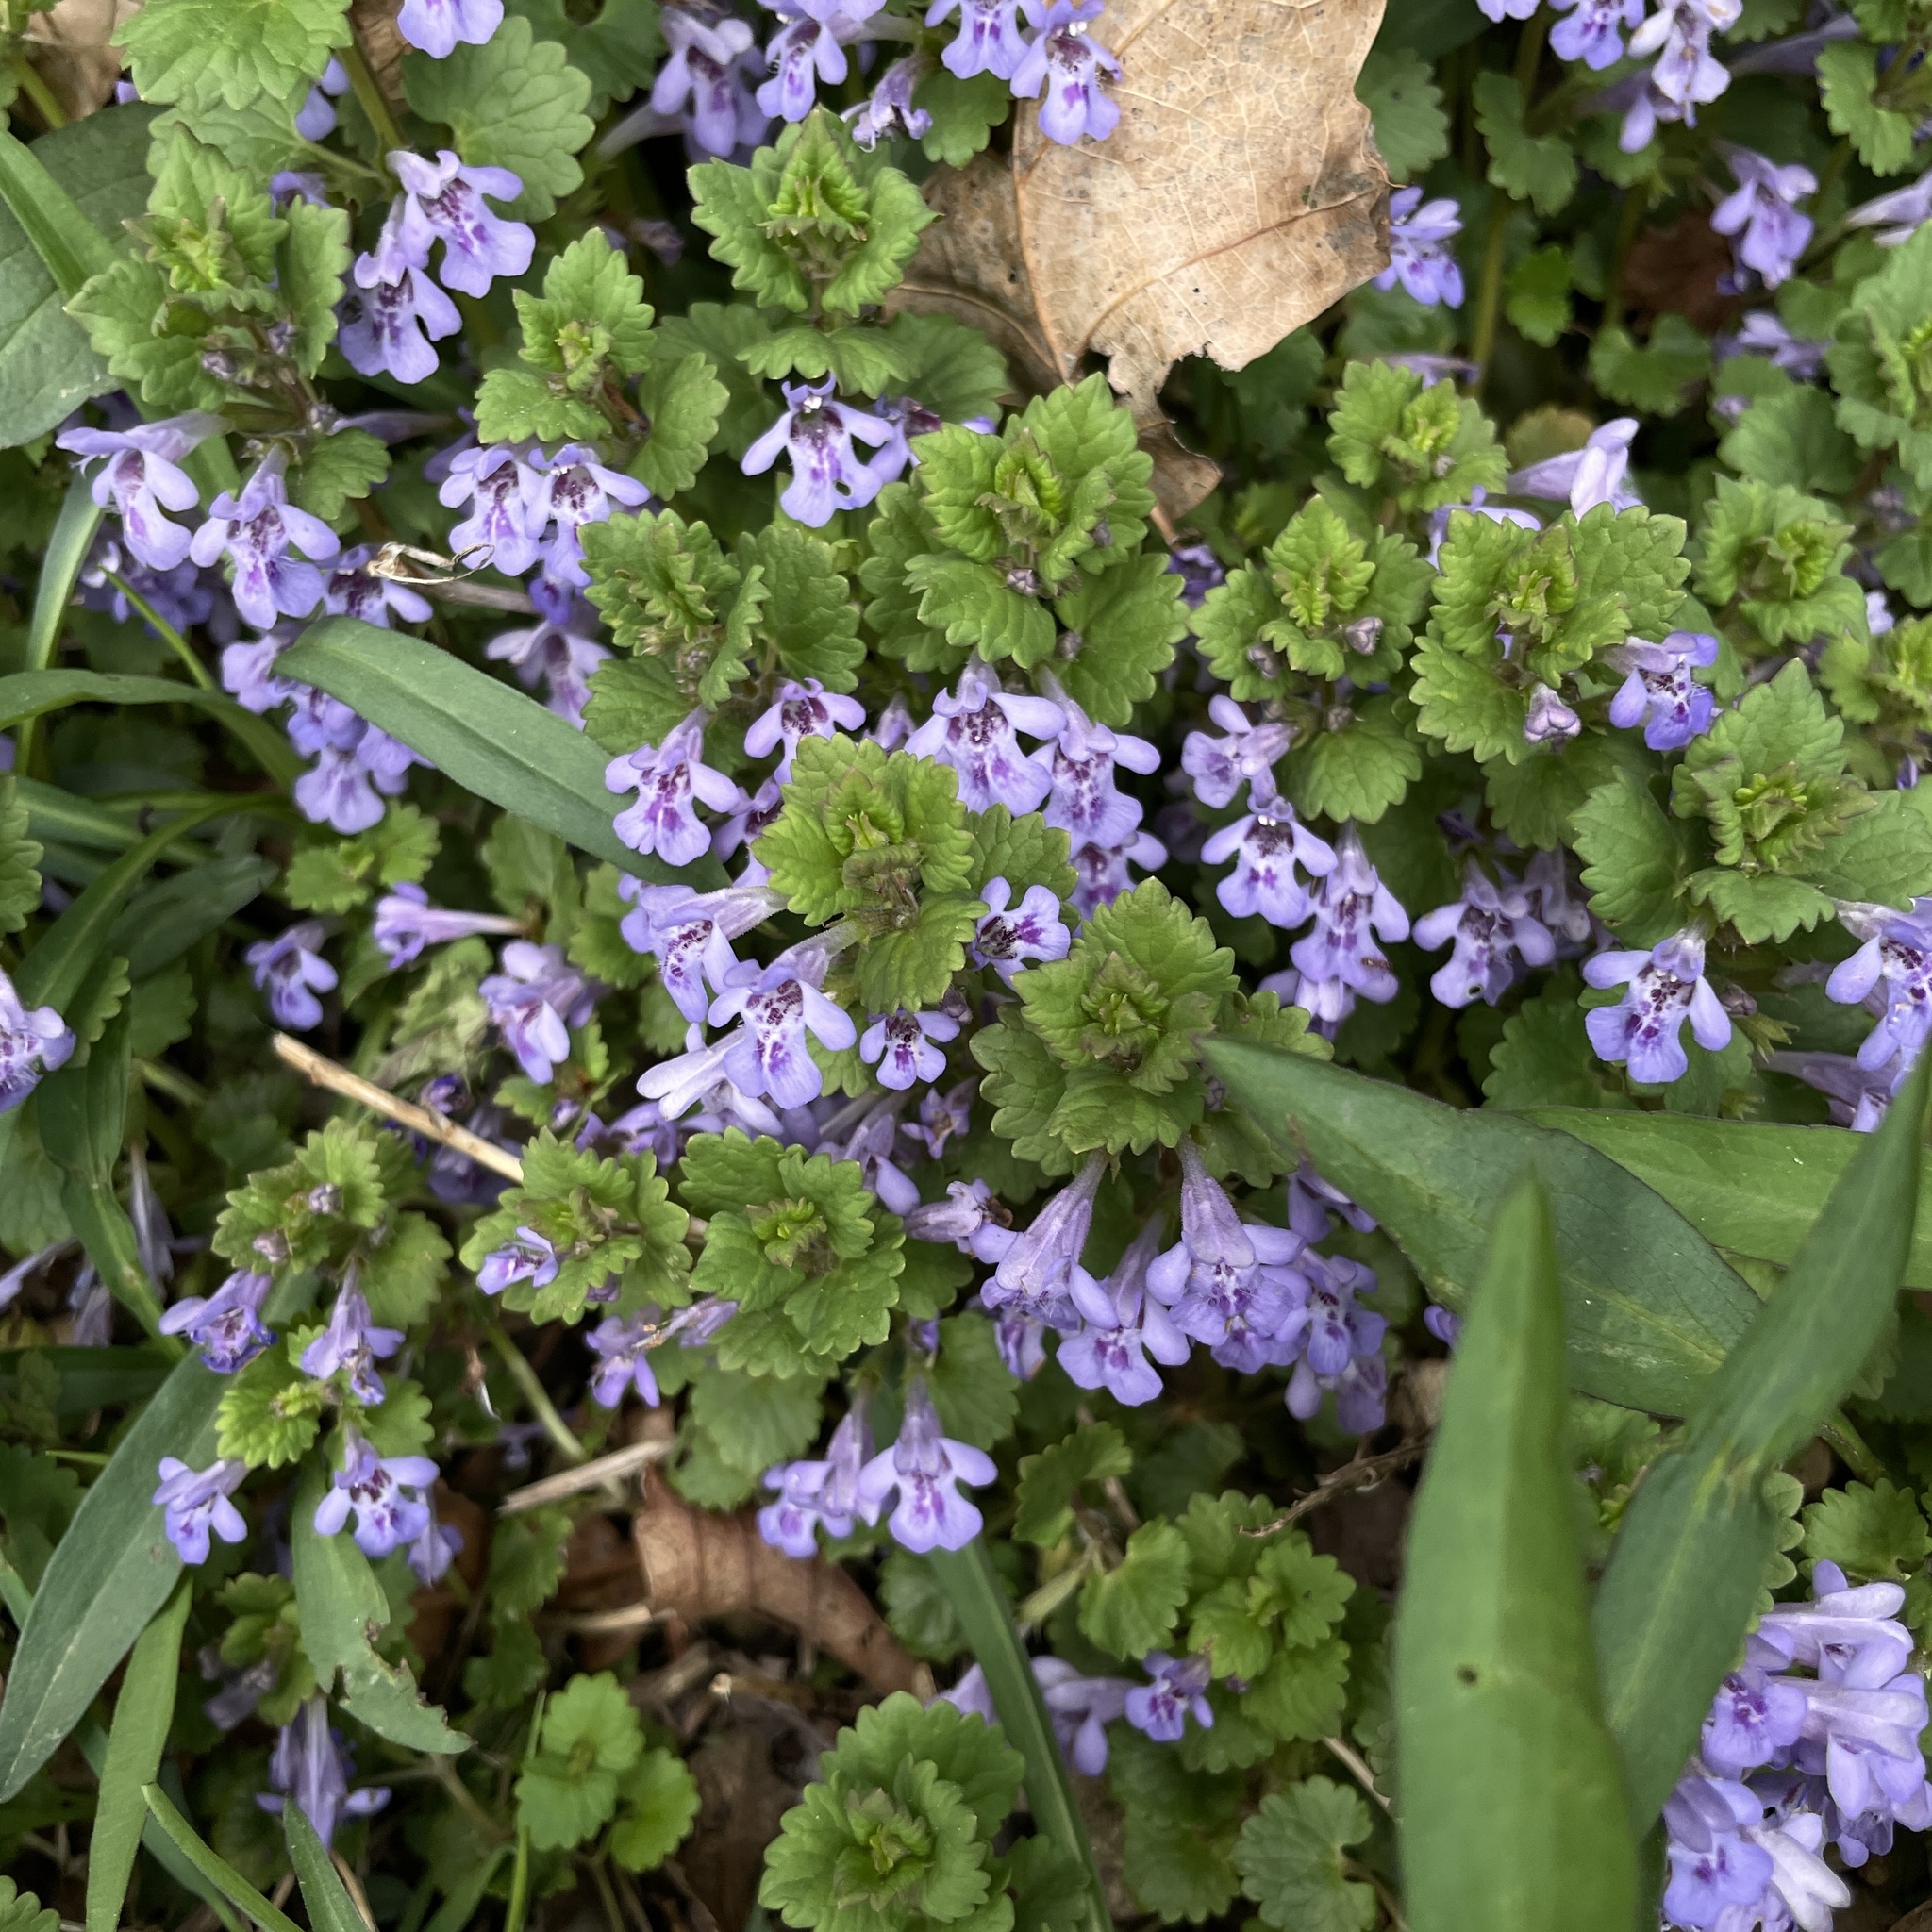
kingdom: Plantae
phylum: Tracheophyta
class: Magnoliopsida
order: Lamiales
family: Lamiaceae
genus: Glechoma
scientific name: Glechoma hederacea
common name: Ground ivy
